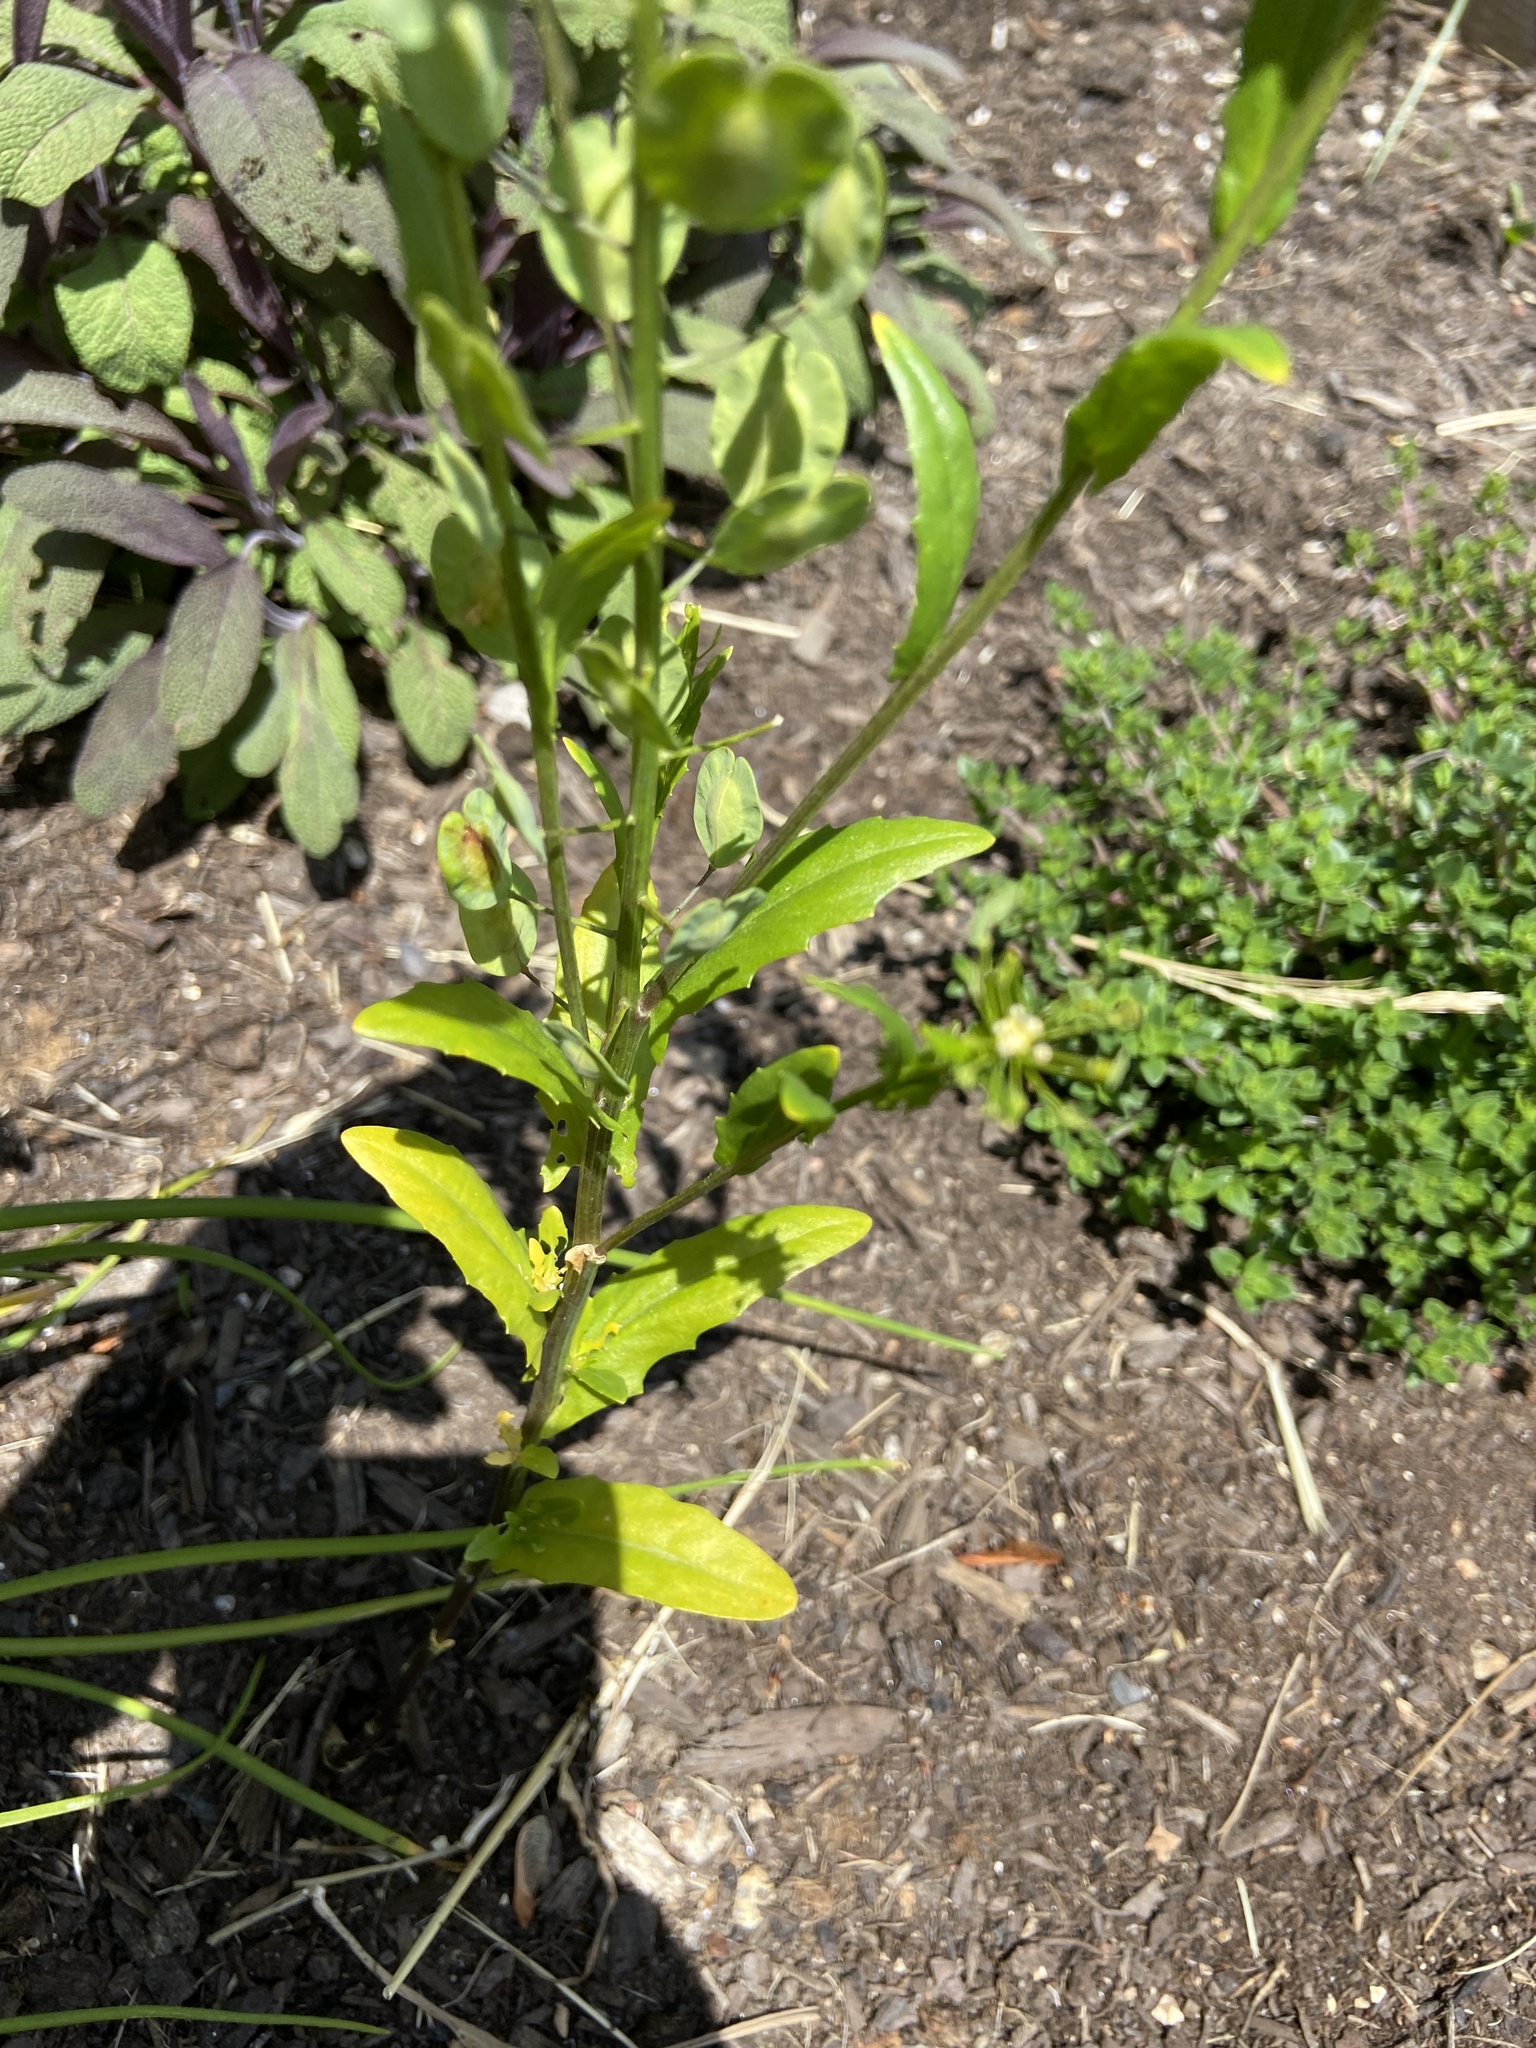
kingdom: Plantae
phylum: Tracheophyta
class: Magnoliopsida
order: Brassicales
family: Brassicaceae
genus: Thlaspi
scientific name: Thlaspi arvense
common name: Field pennycress
